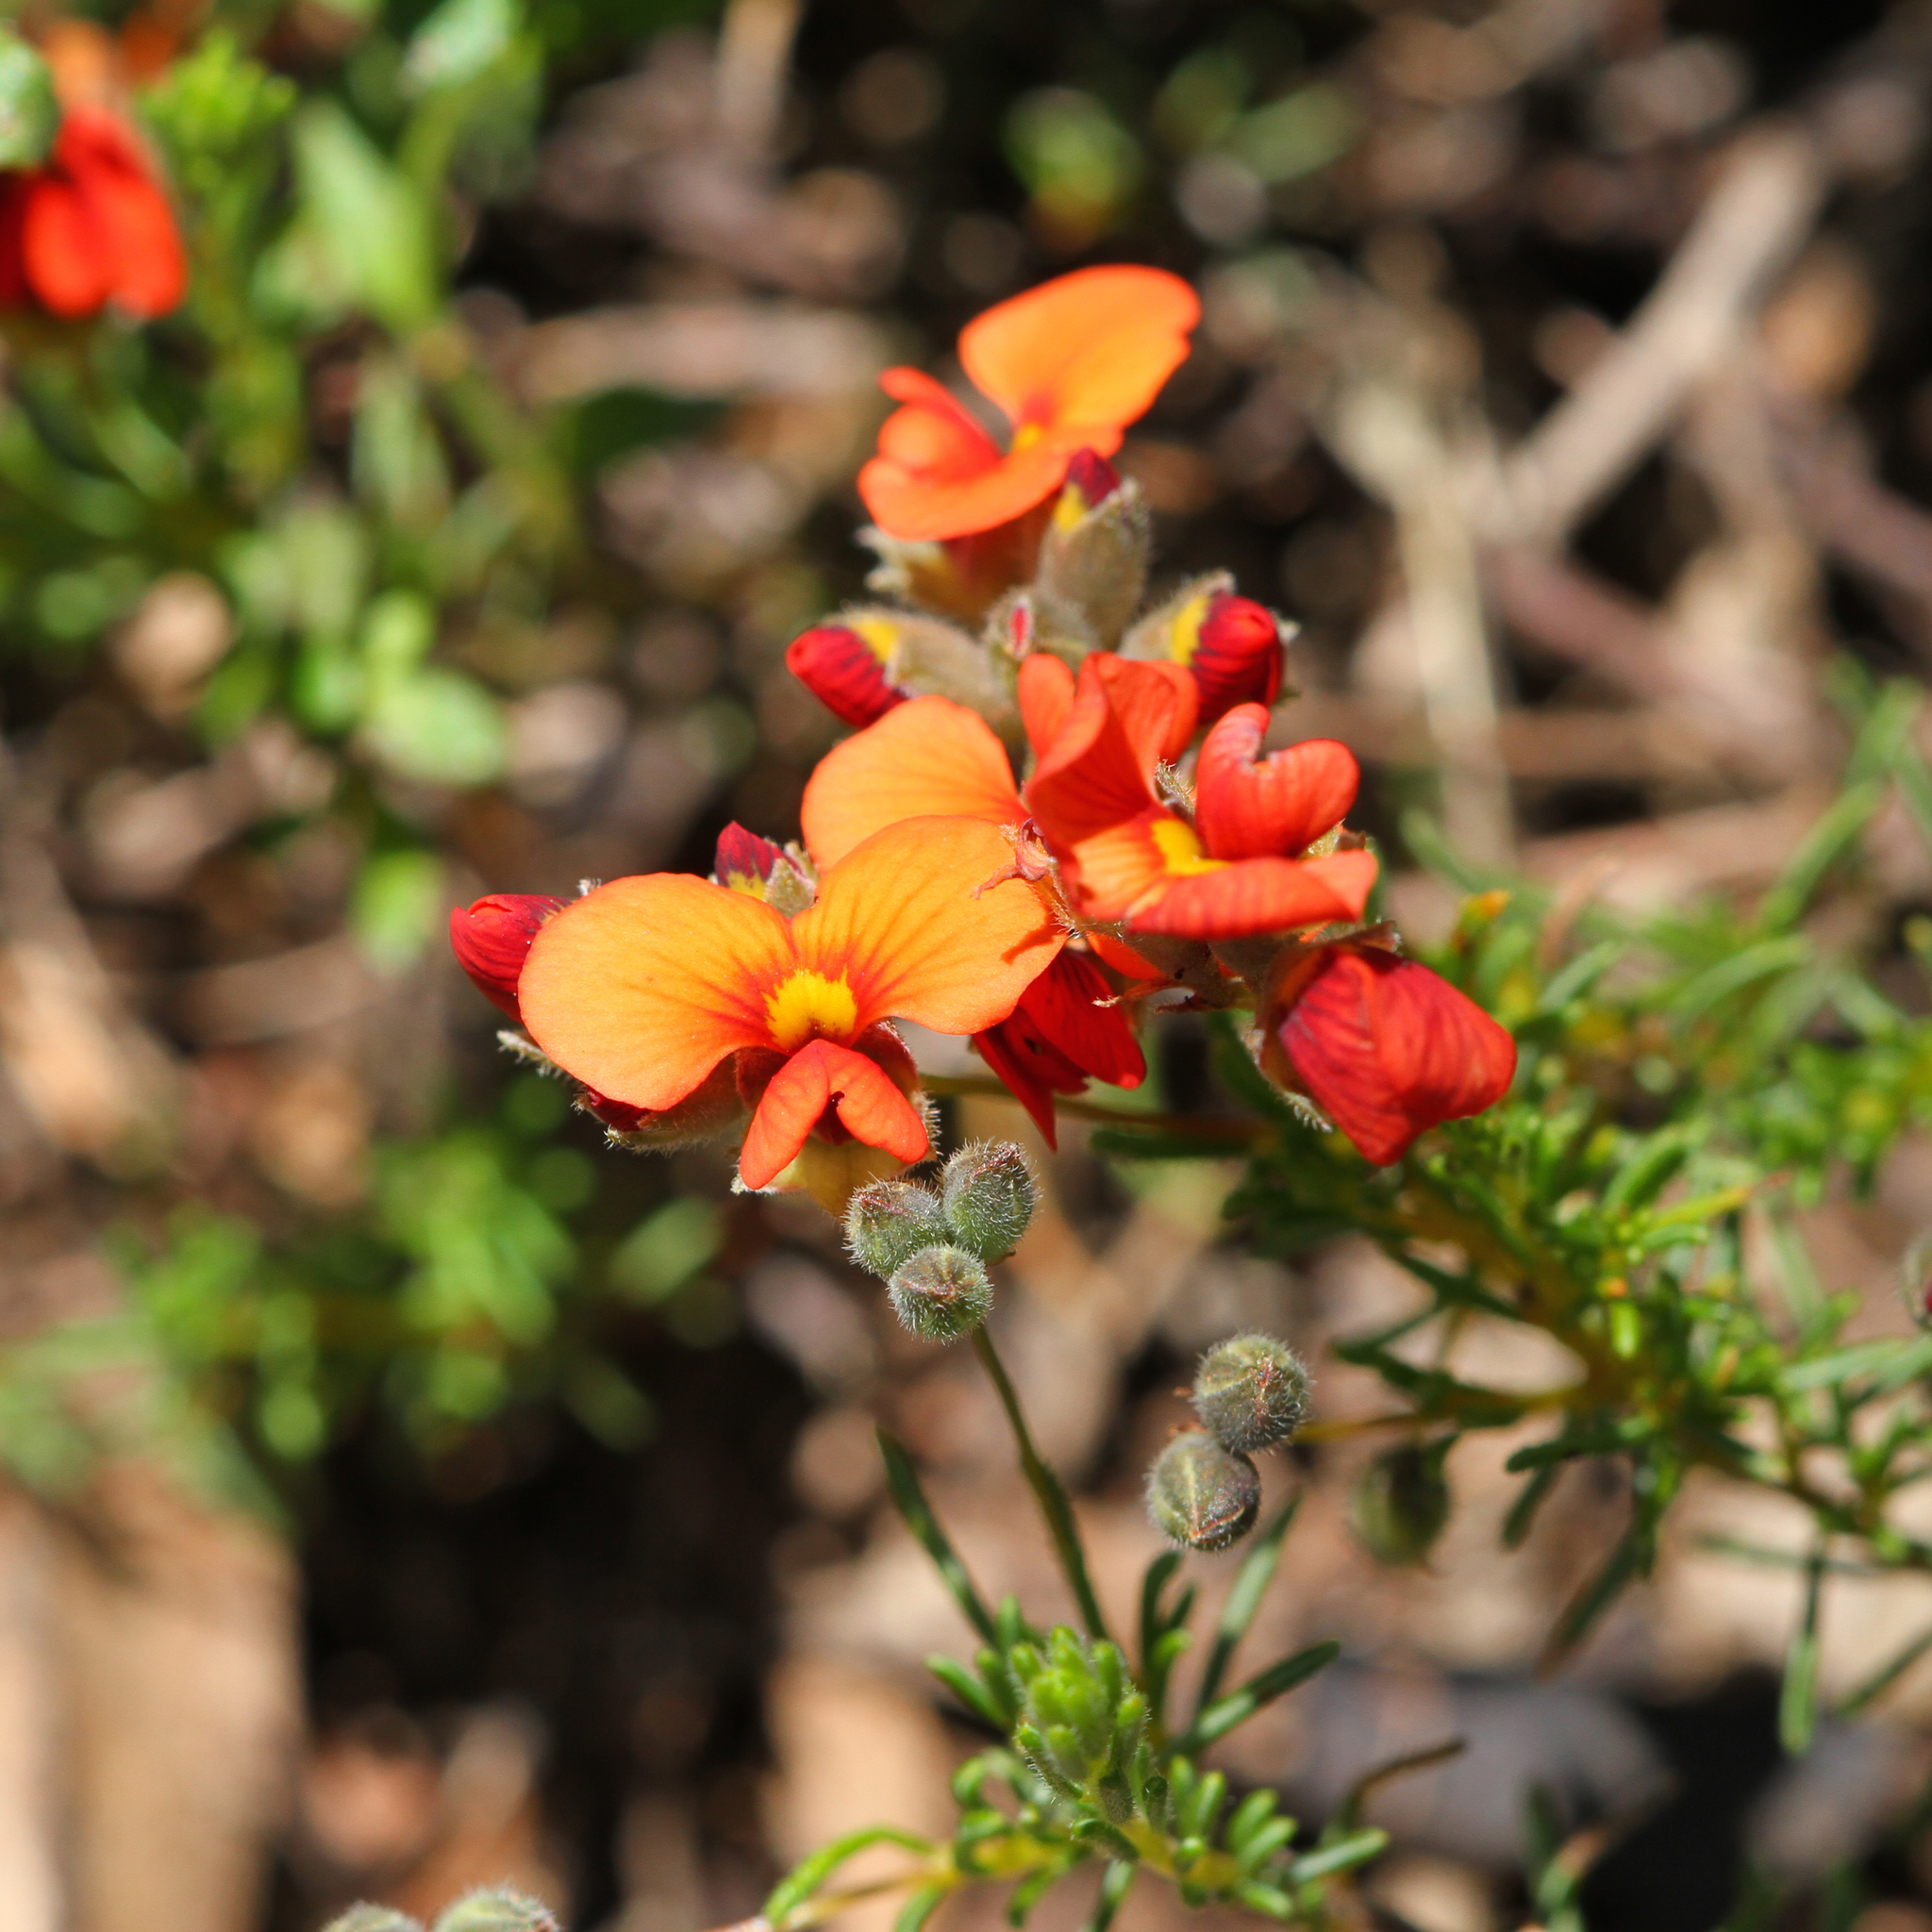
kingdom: Plantae
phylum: Tracheophyta
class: Magnoliopsida
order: Fabales
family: Fabaceae
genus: Dillwynia
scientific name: Dillwynia hispida
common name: Red parrot-pea
